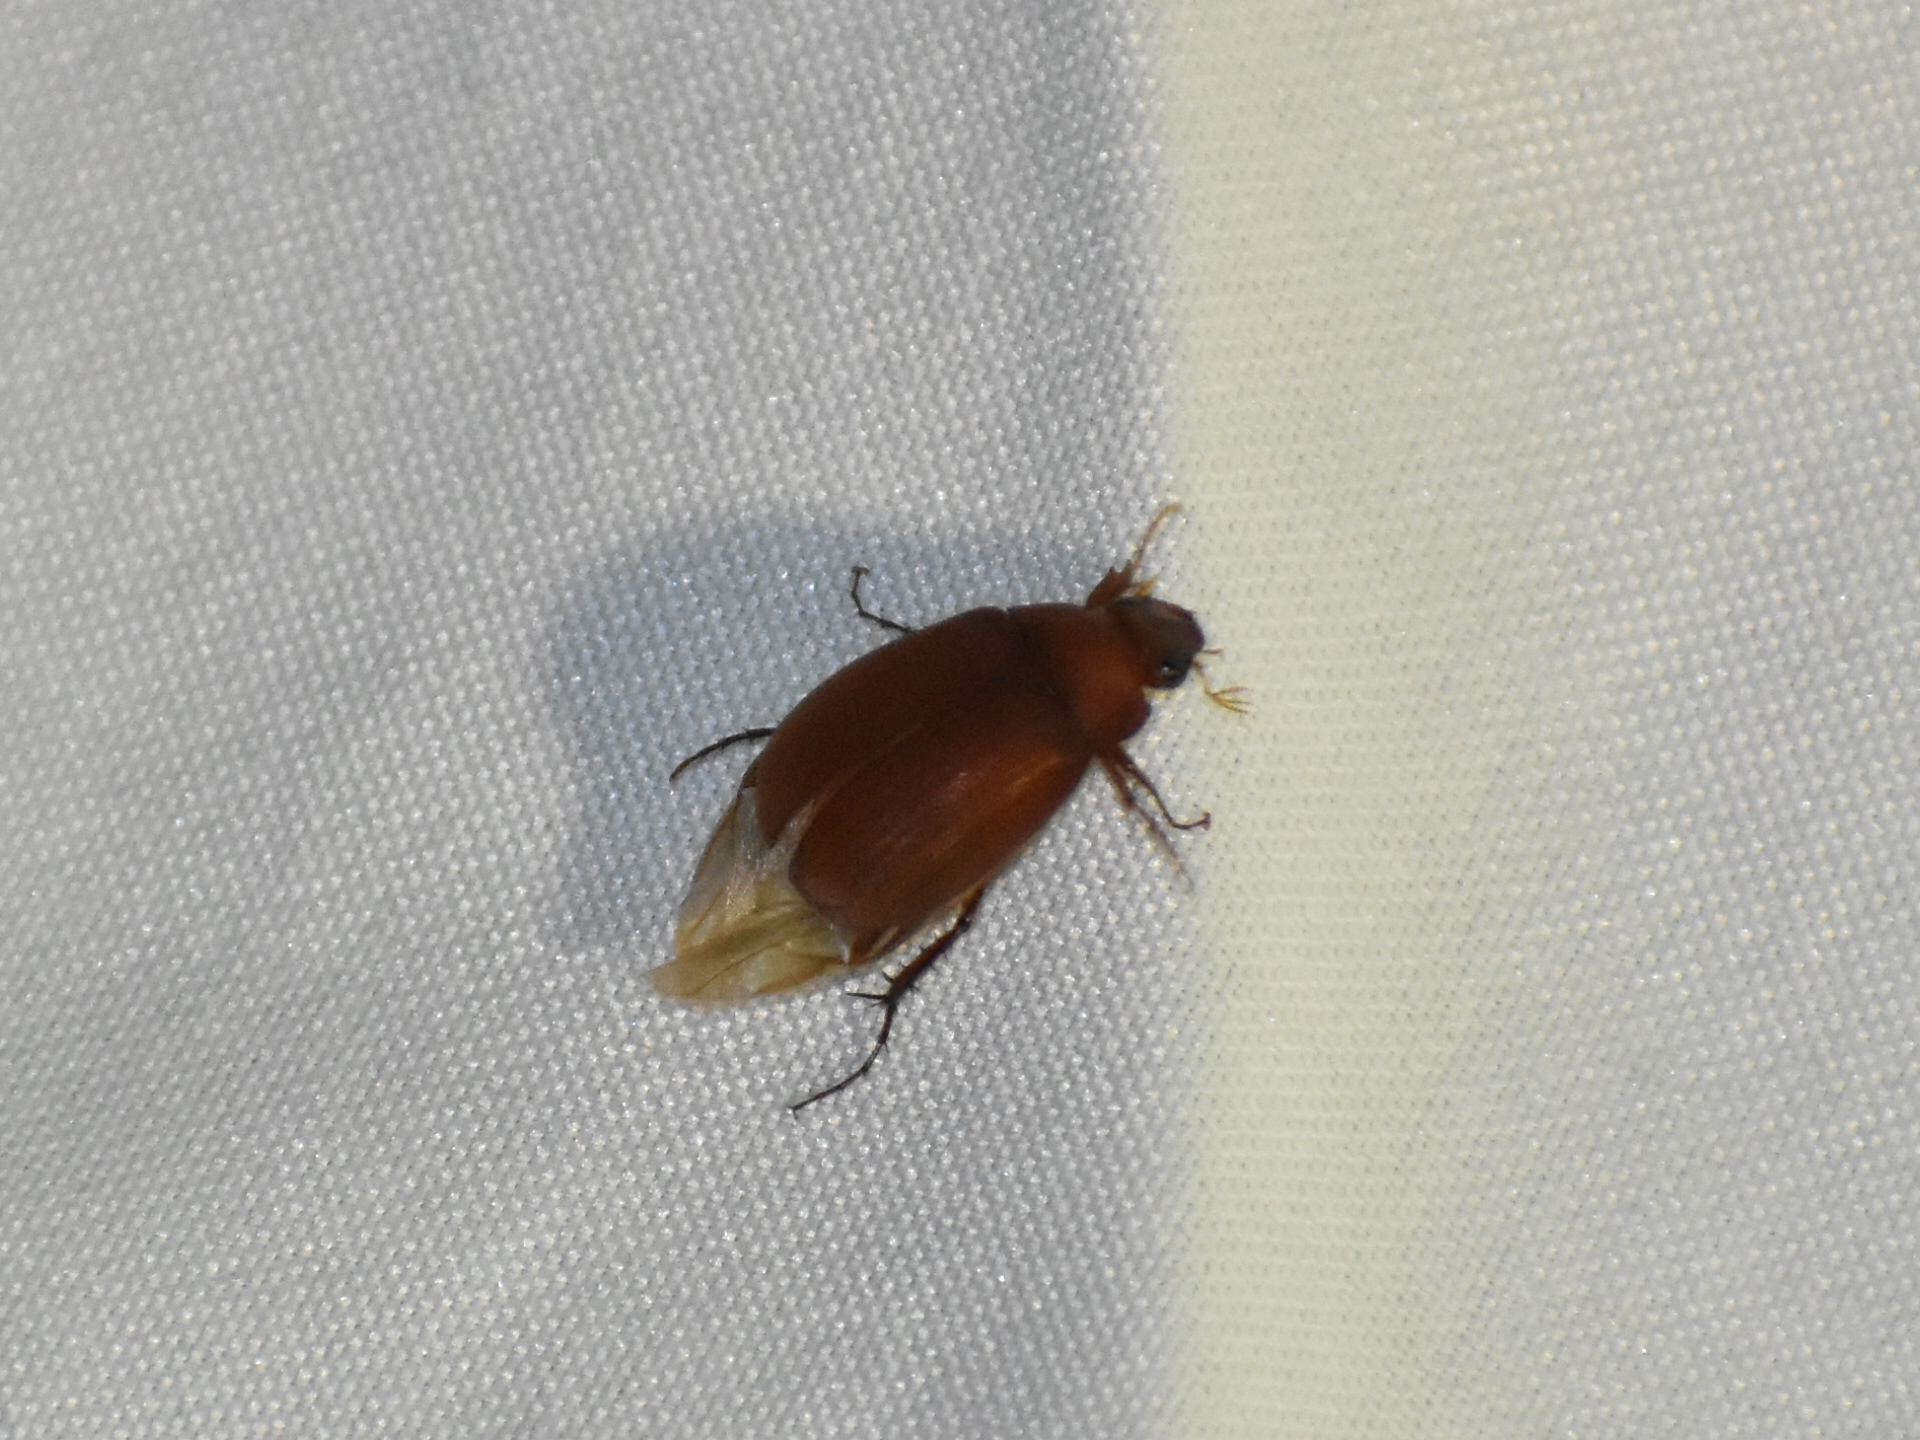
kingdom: Animalia
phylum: Arthropoda
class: Insecta
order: Coleoptera
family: Scarabaeidae
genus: Maladera
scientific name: Maladera formosae
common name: Asiatic garden beetle
